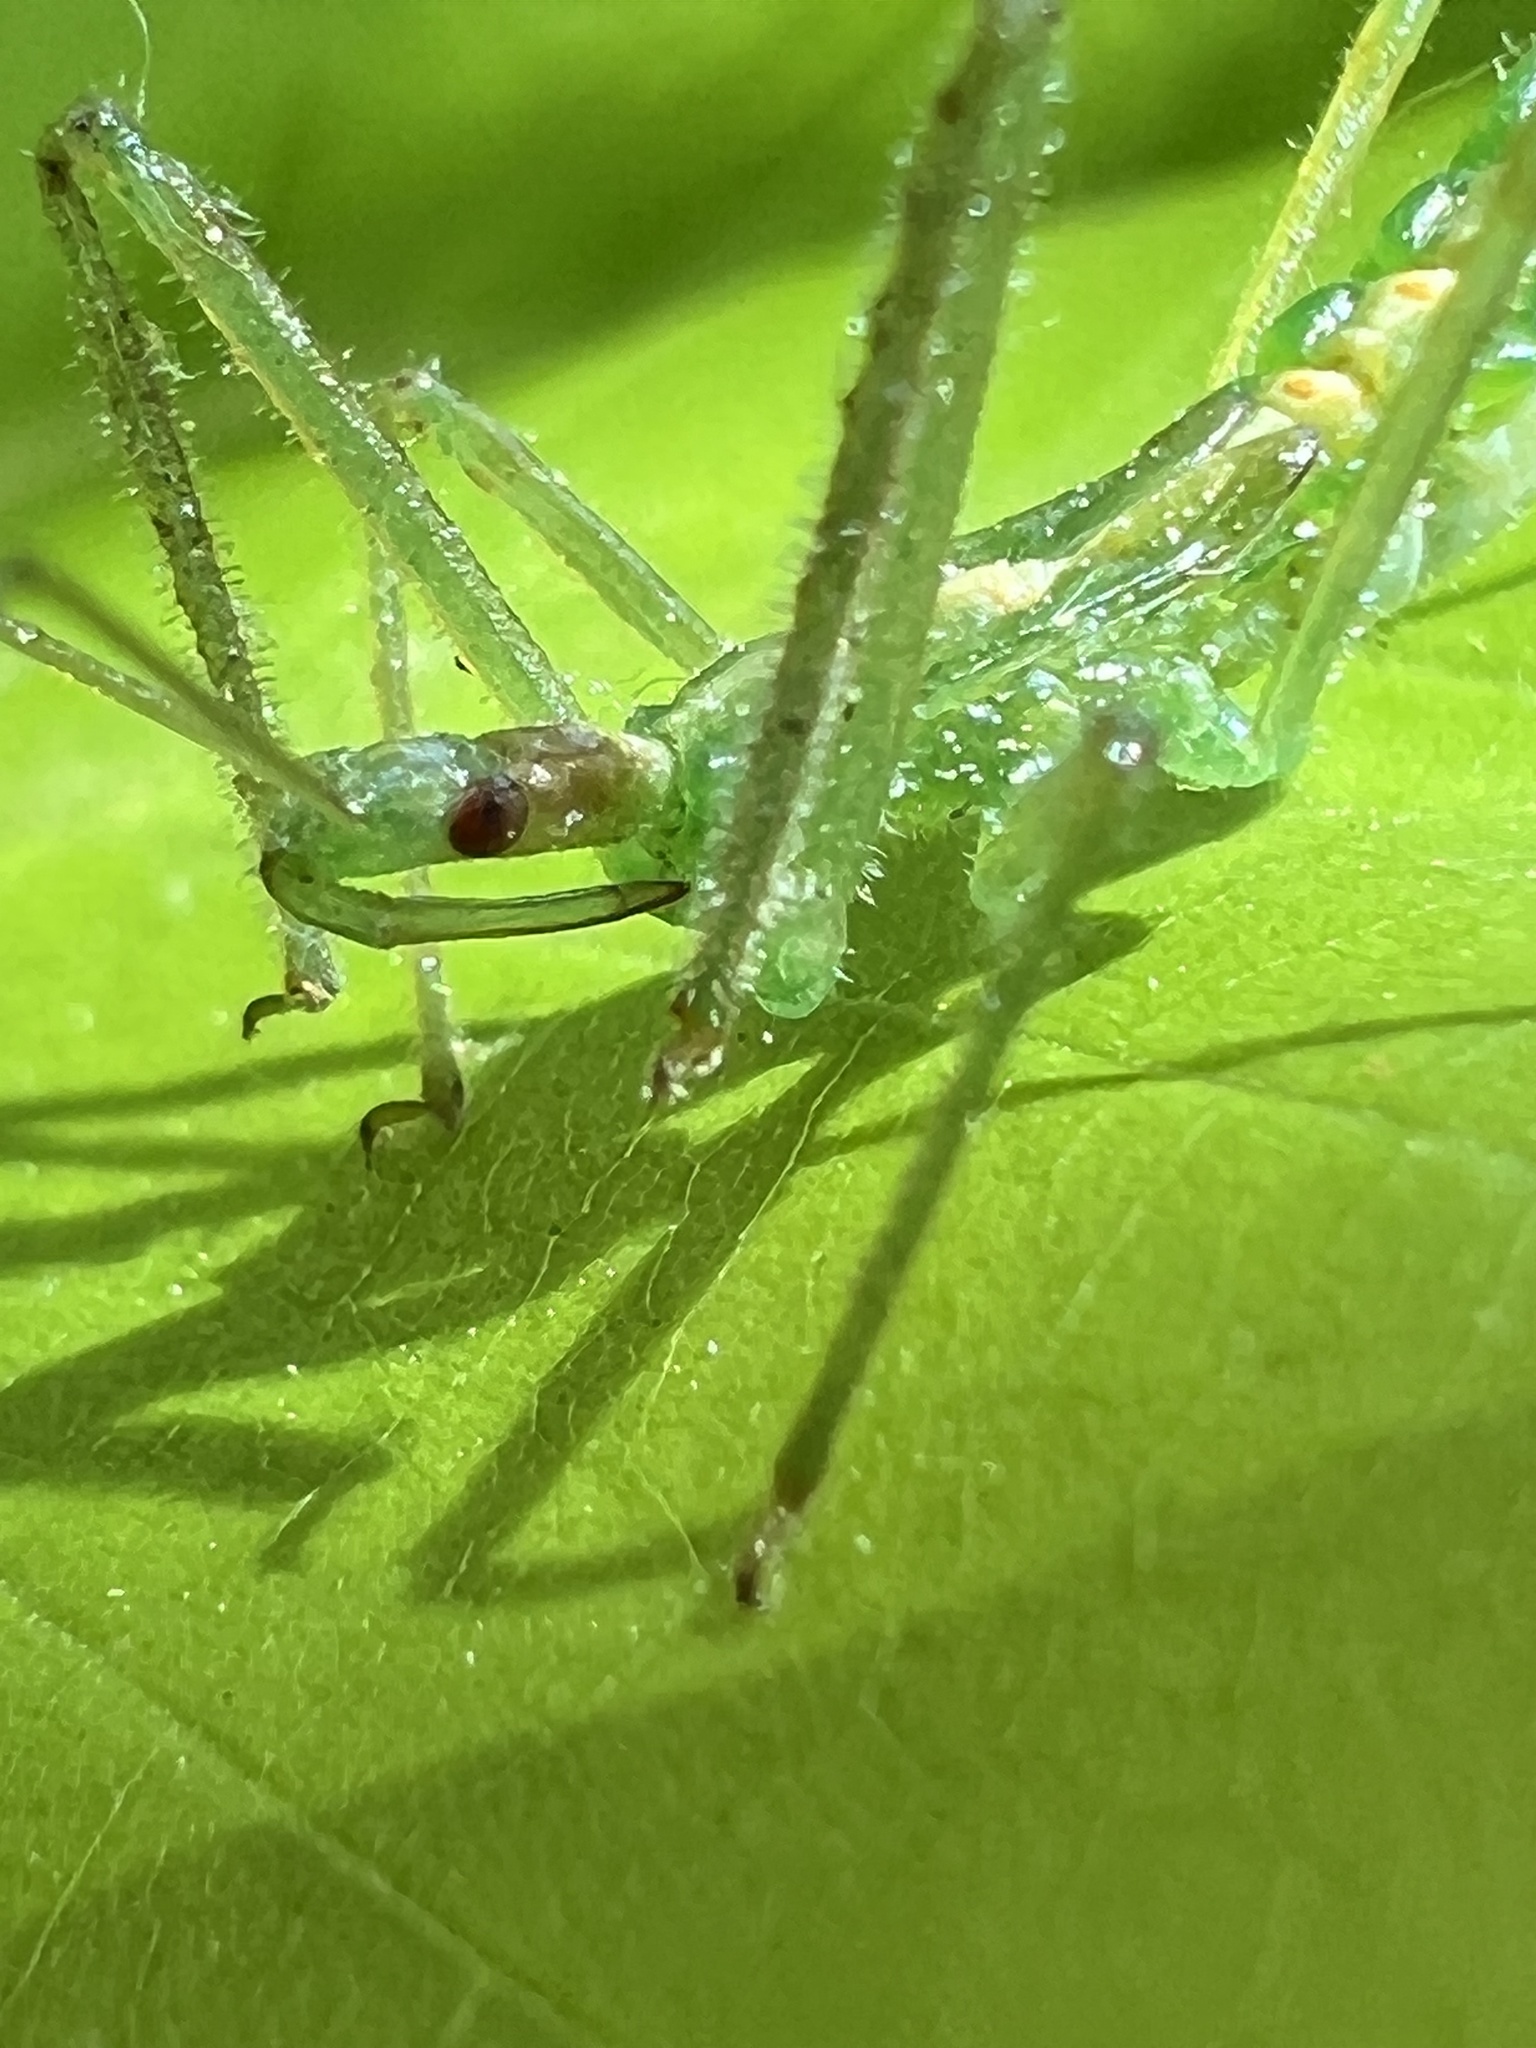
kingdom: Animalia
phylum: Arthropoda
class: Insecta
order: Hemiptera
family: Reduviidae
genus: Zelus
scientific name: Zelus luridus
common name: Pale green assassin bug
